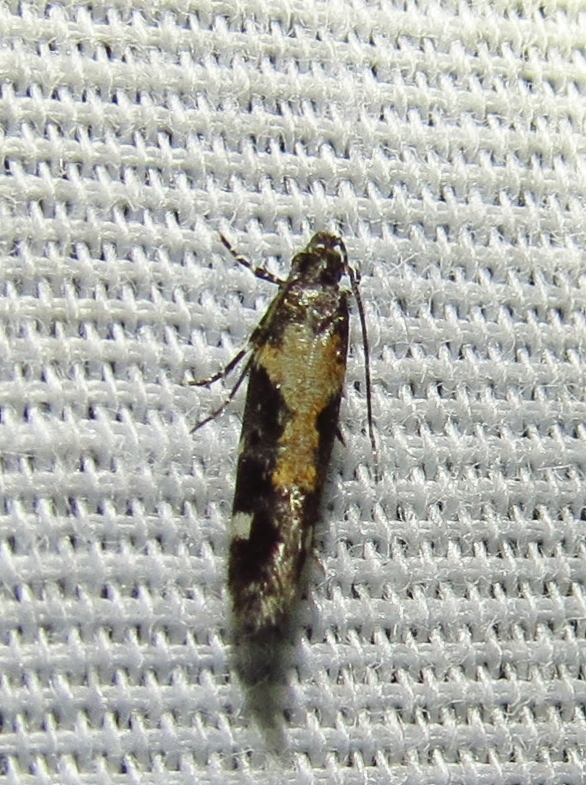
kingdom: Animalia
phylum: Arthropoda
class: Insecta
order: Lepidoptera
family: Gelechiidae
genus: Stegasta
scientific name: Stegasta bosqueella
